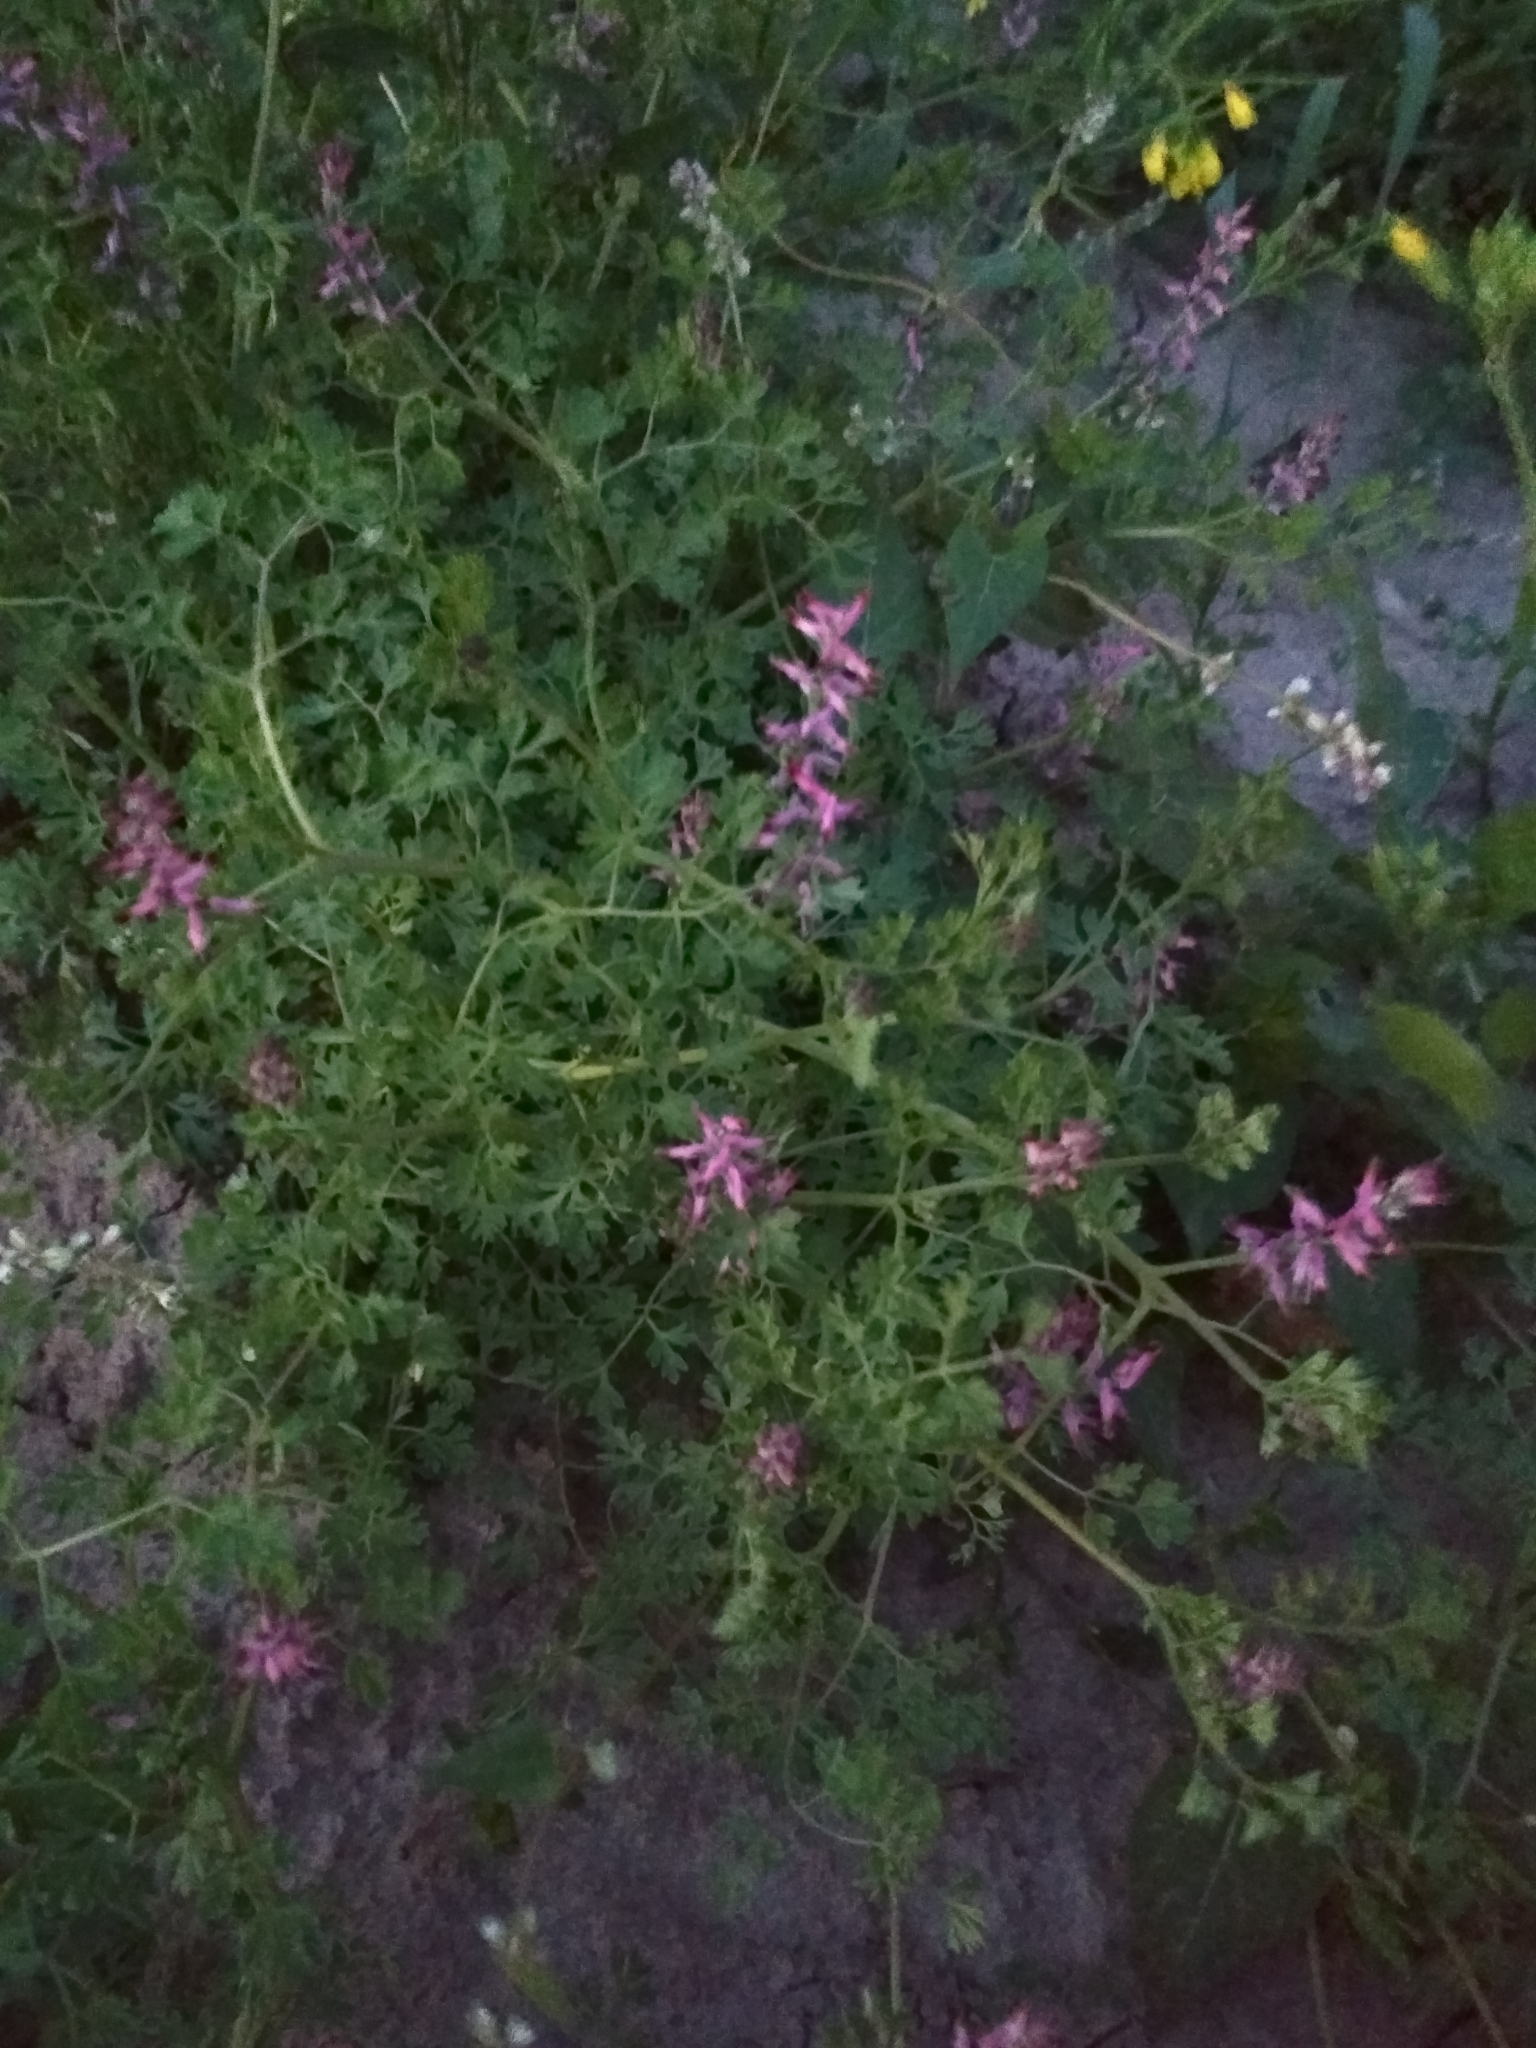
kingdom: Plantae
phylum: Tracheophyta
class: Magnoliopsida
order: Ranunculales
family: Papaveraceae
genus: Fumaria
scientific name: Fumaria officinalis
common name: Common fumitory
